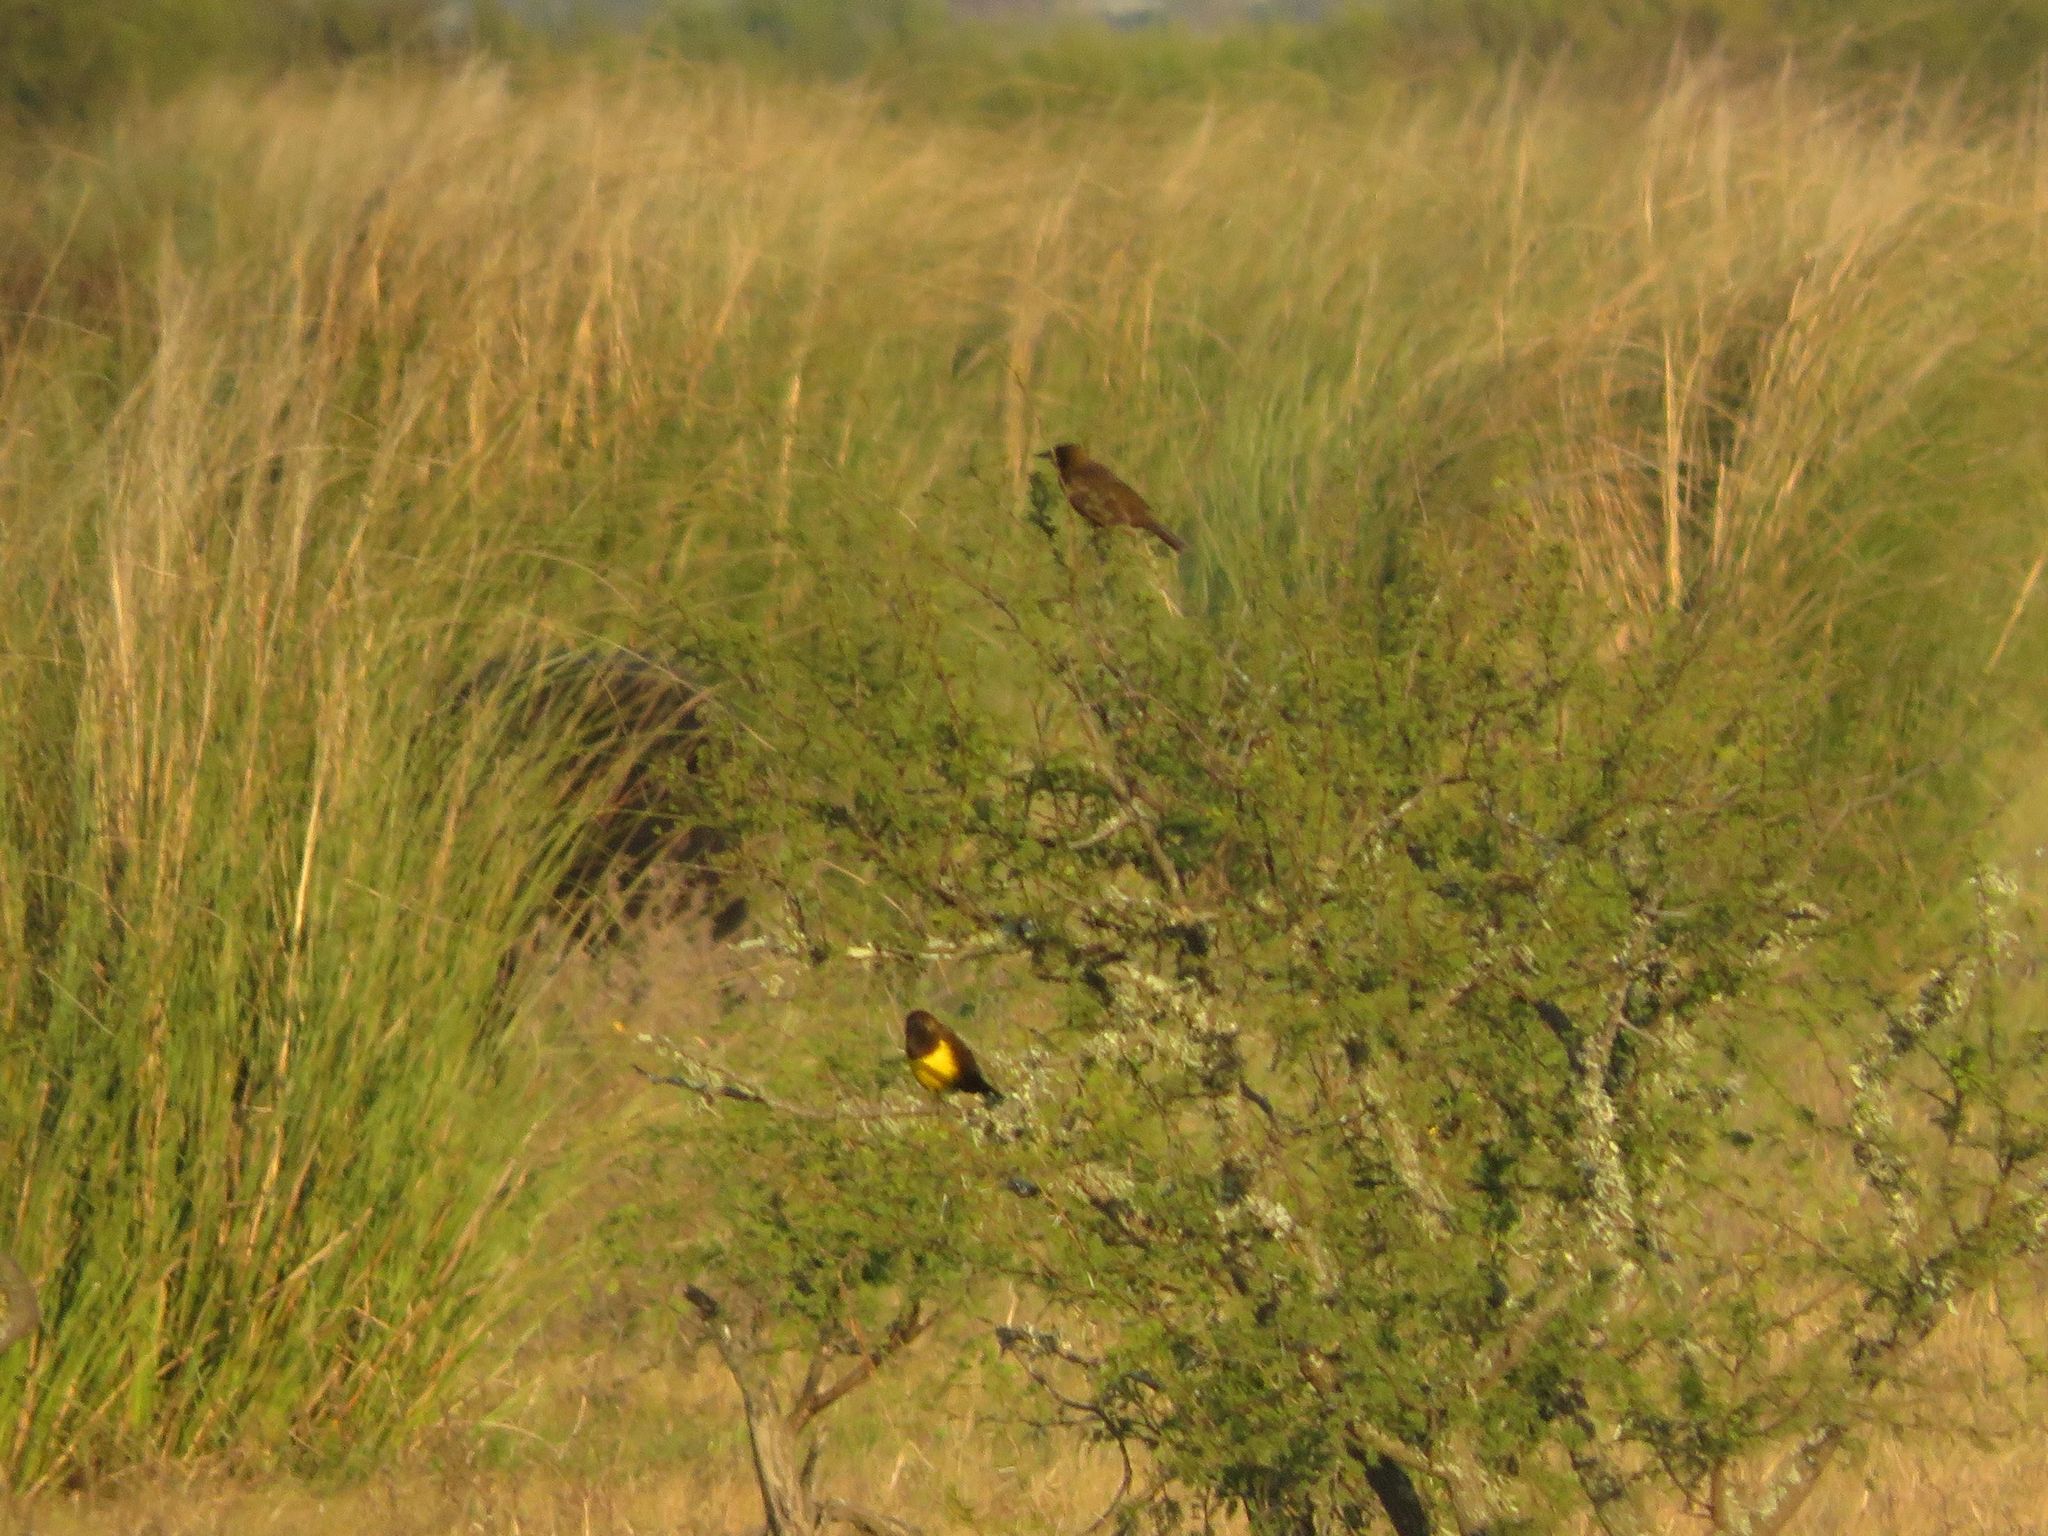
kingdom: Animalia
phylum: Chordata
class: Aves
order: Passeriformes
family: Icteridae
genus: Pseudoleistes
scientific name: Pseudoleistes virescens
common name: Brown-and-yellow marshbird
